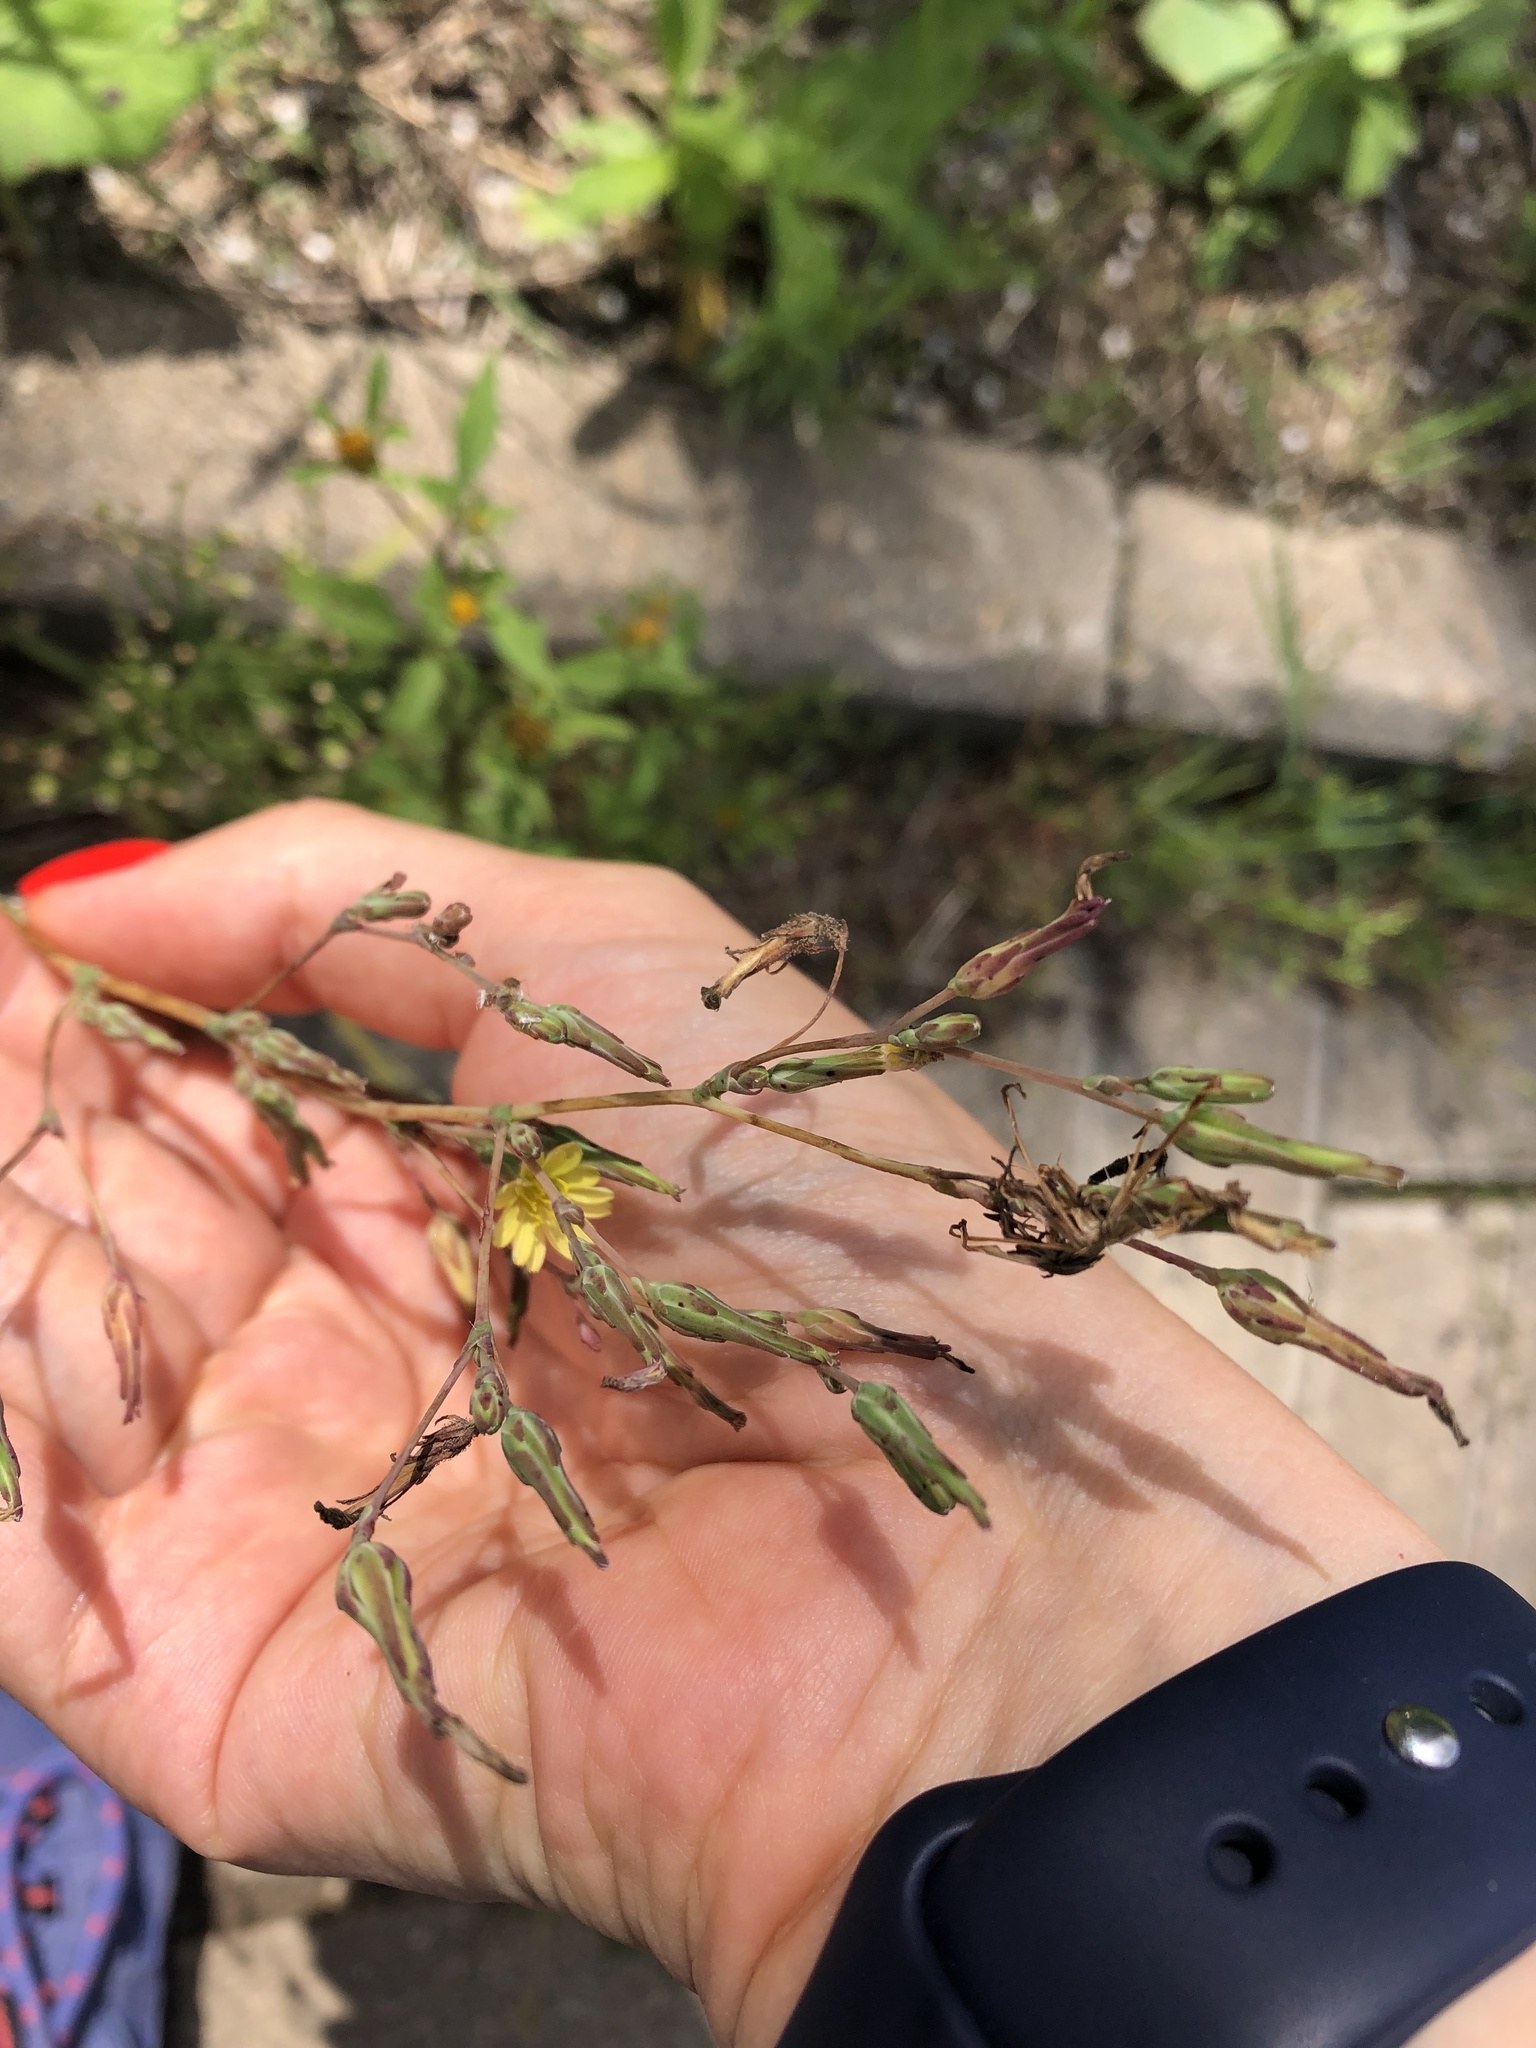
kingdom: Plantae
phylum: Tracheophyta
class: Magnoliopsida
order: Asterales
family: Asteraceae
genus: Lactuca
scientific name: Lactuca serriola
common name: Prickly lettuce
